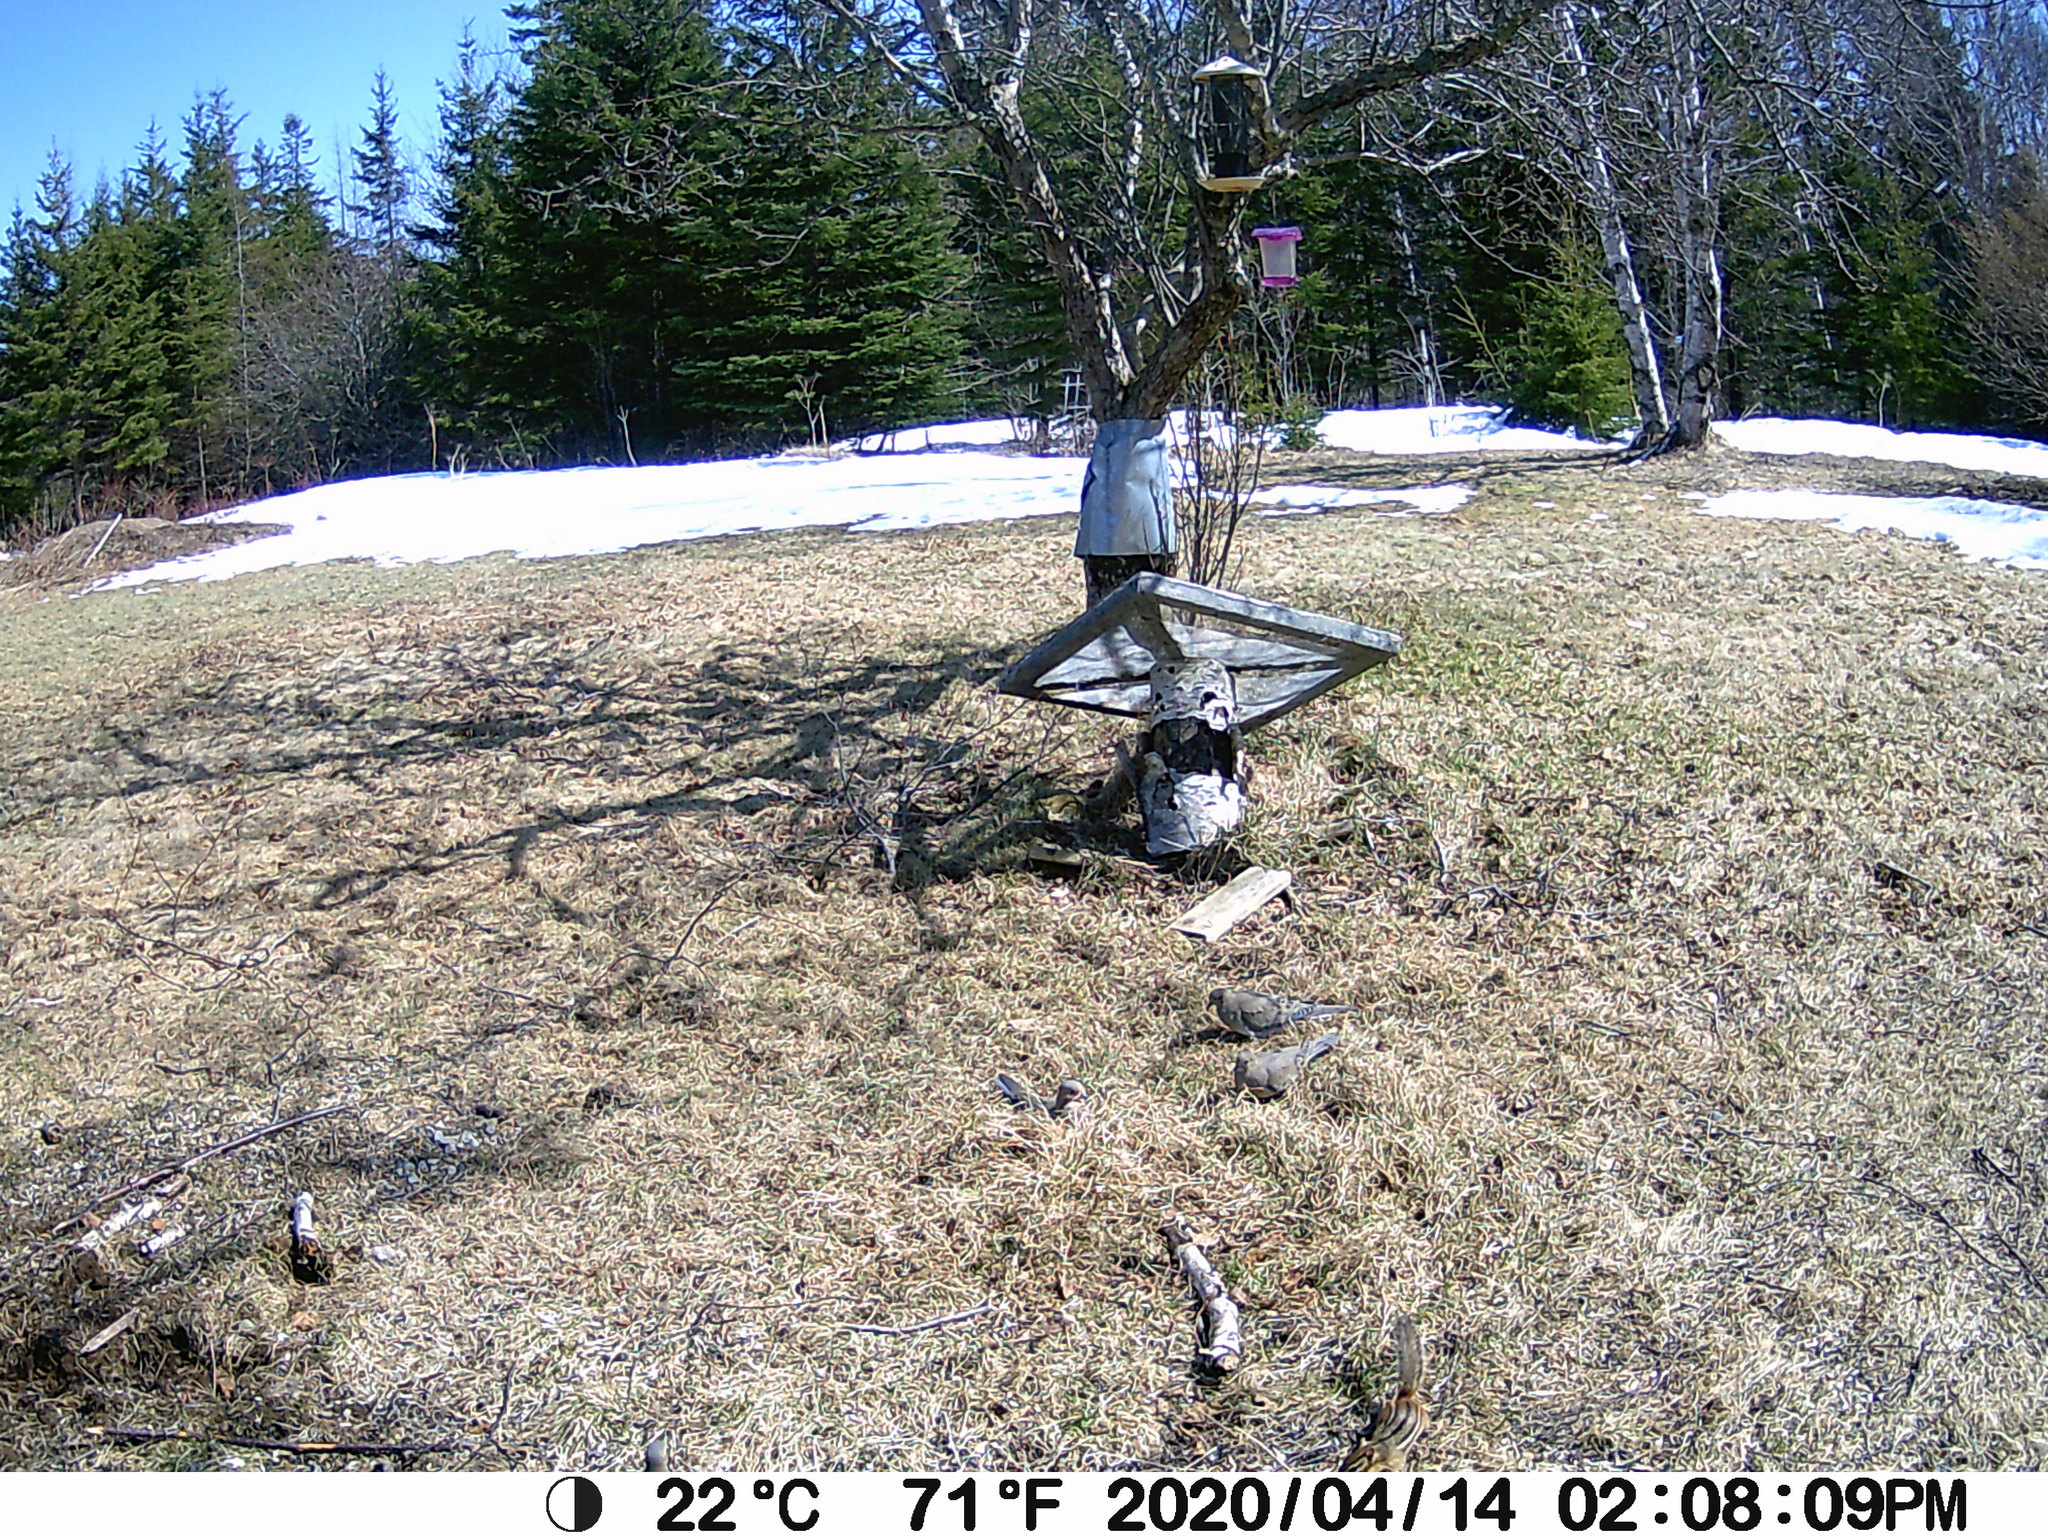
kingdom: Animalia
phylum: Chordata
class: Aves
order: Columbiformes
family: Columbidae
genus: Zenaida
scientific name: Zenaida macroura
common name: Mourning dove
